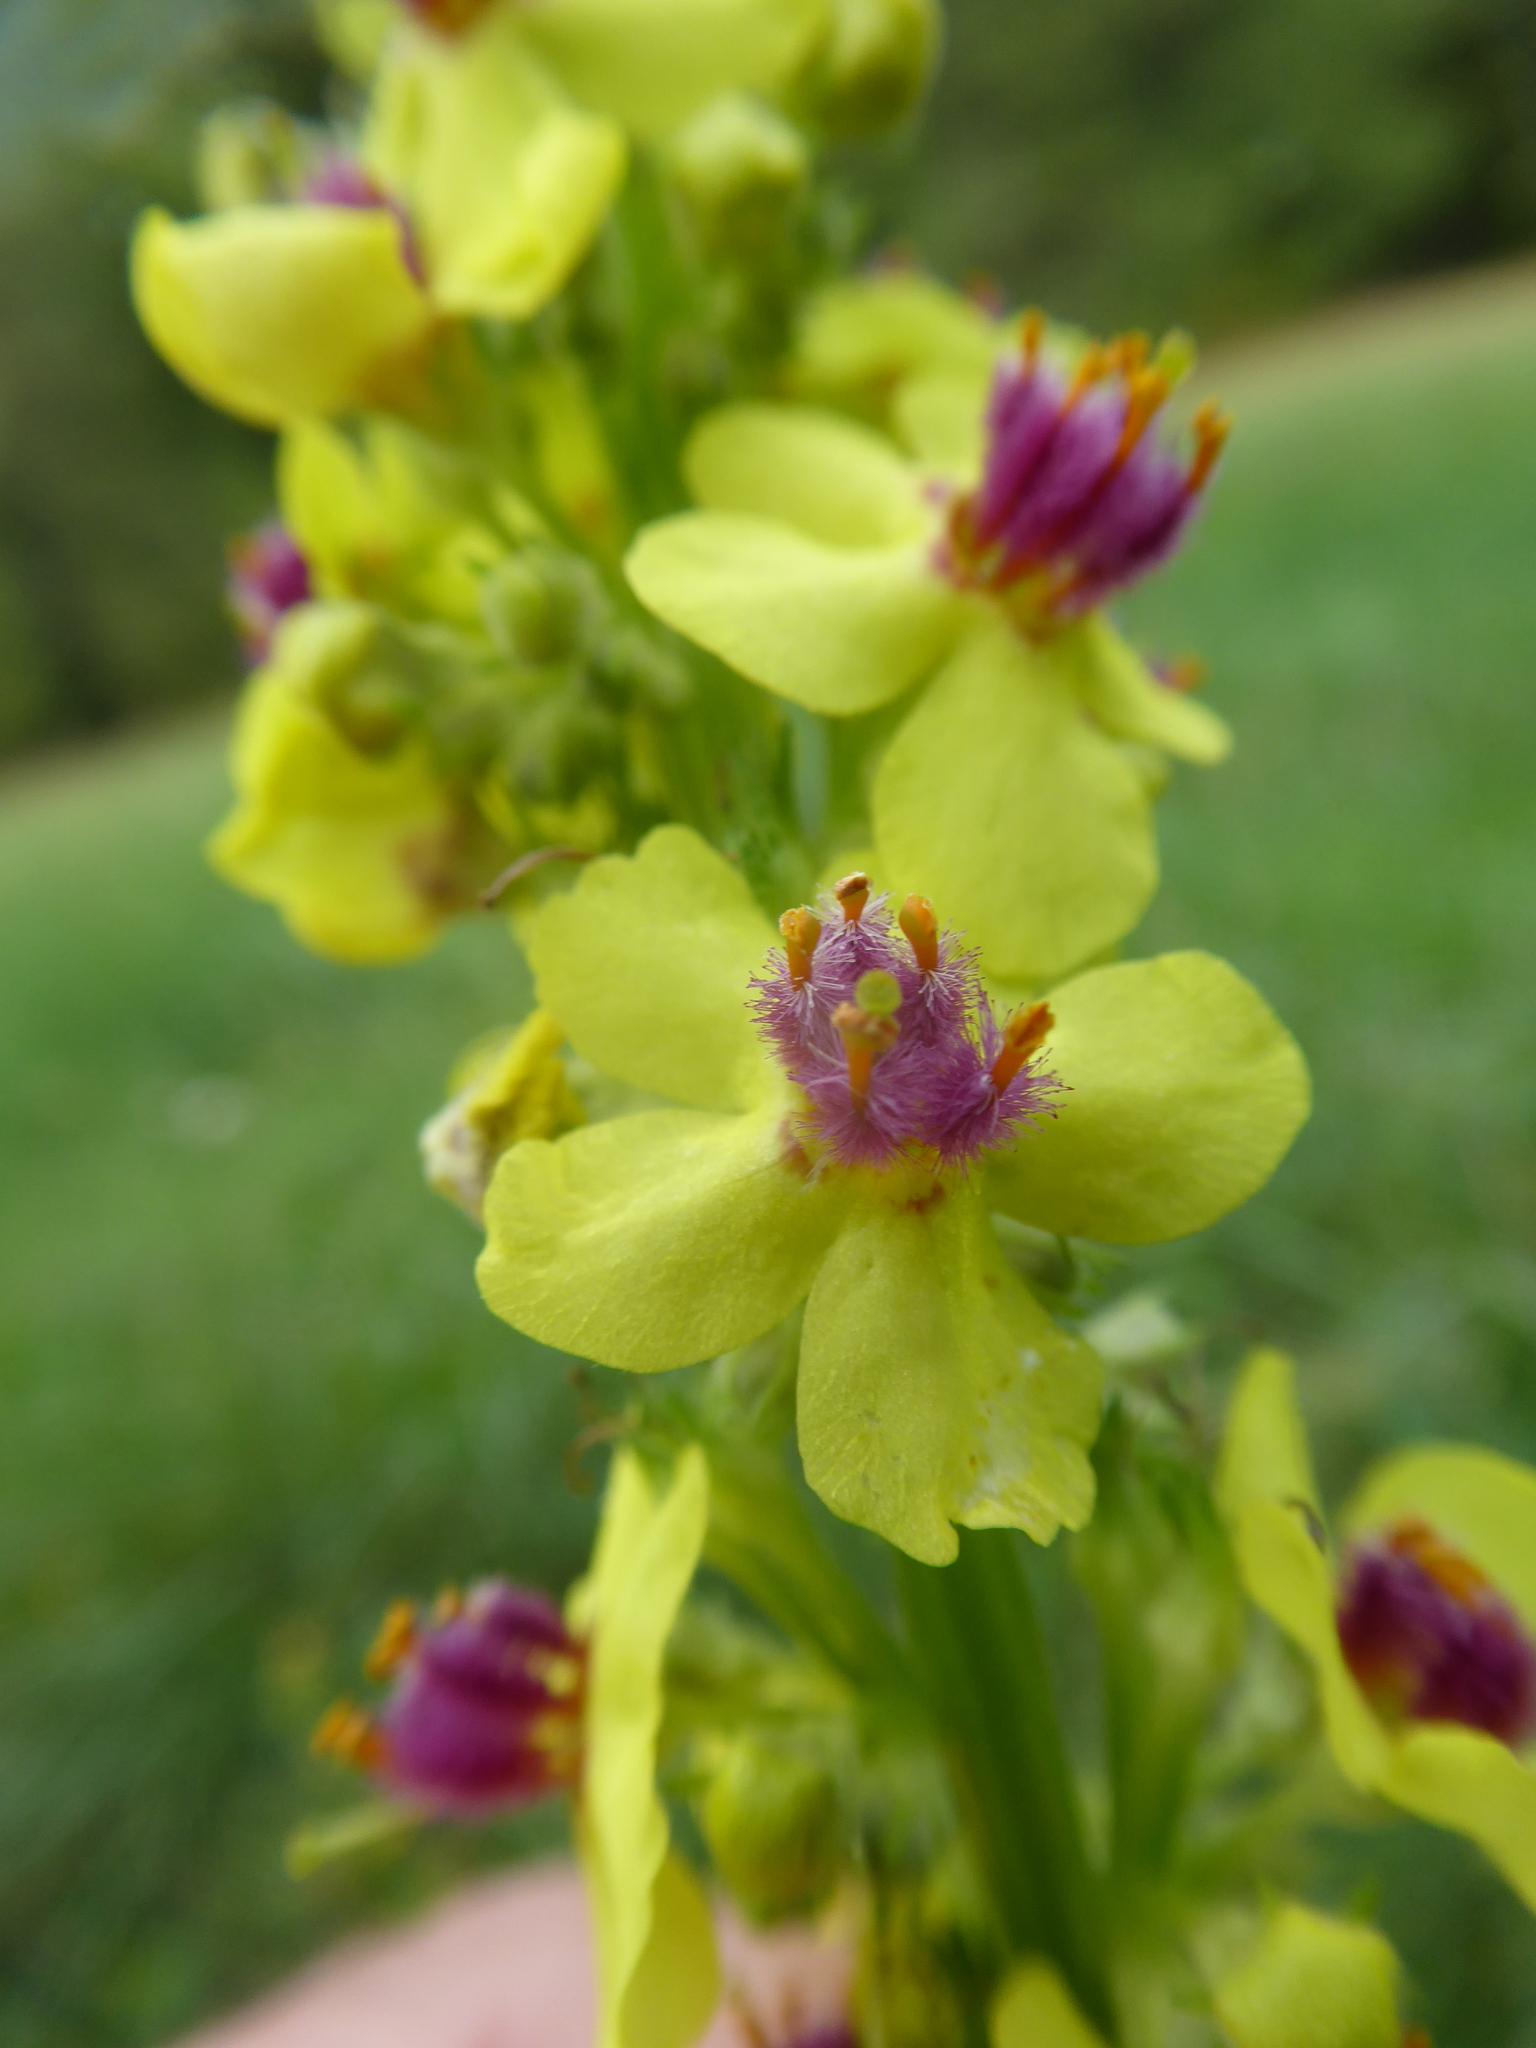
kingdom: Plantae
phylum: Tracheophyta
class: Magnoliopsida
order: Lamiales
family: Scrophulariaceae
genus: Verbascum
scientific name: Verbascum nigrum
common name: Dark mullein
